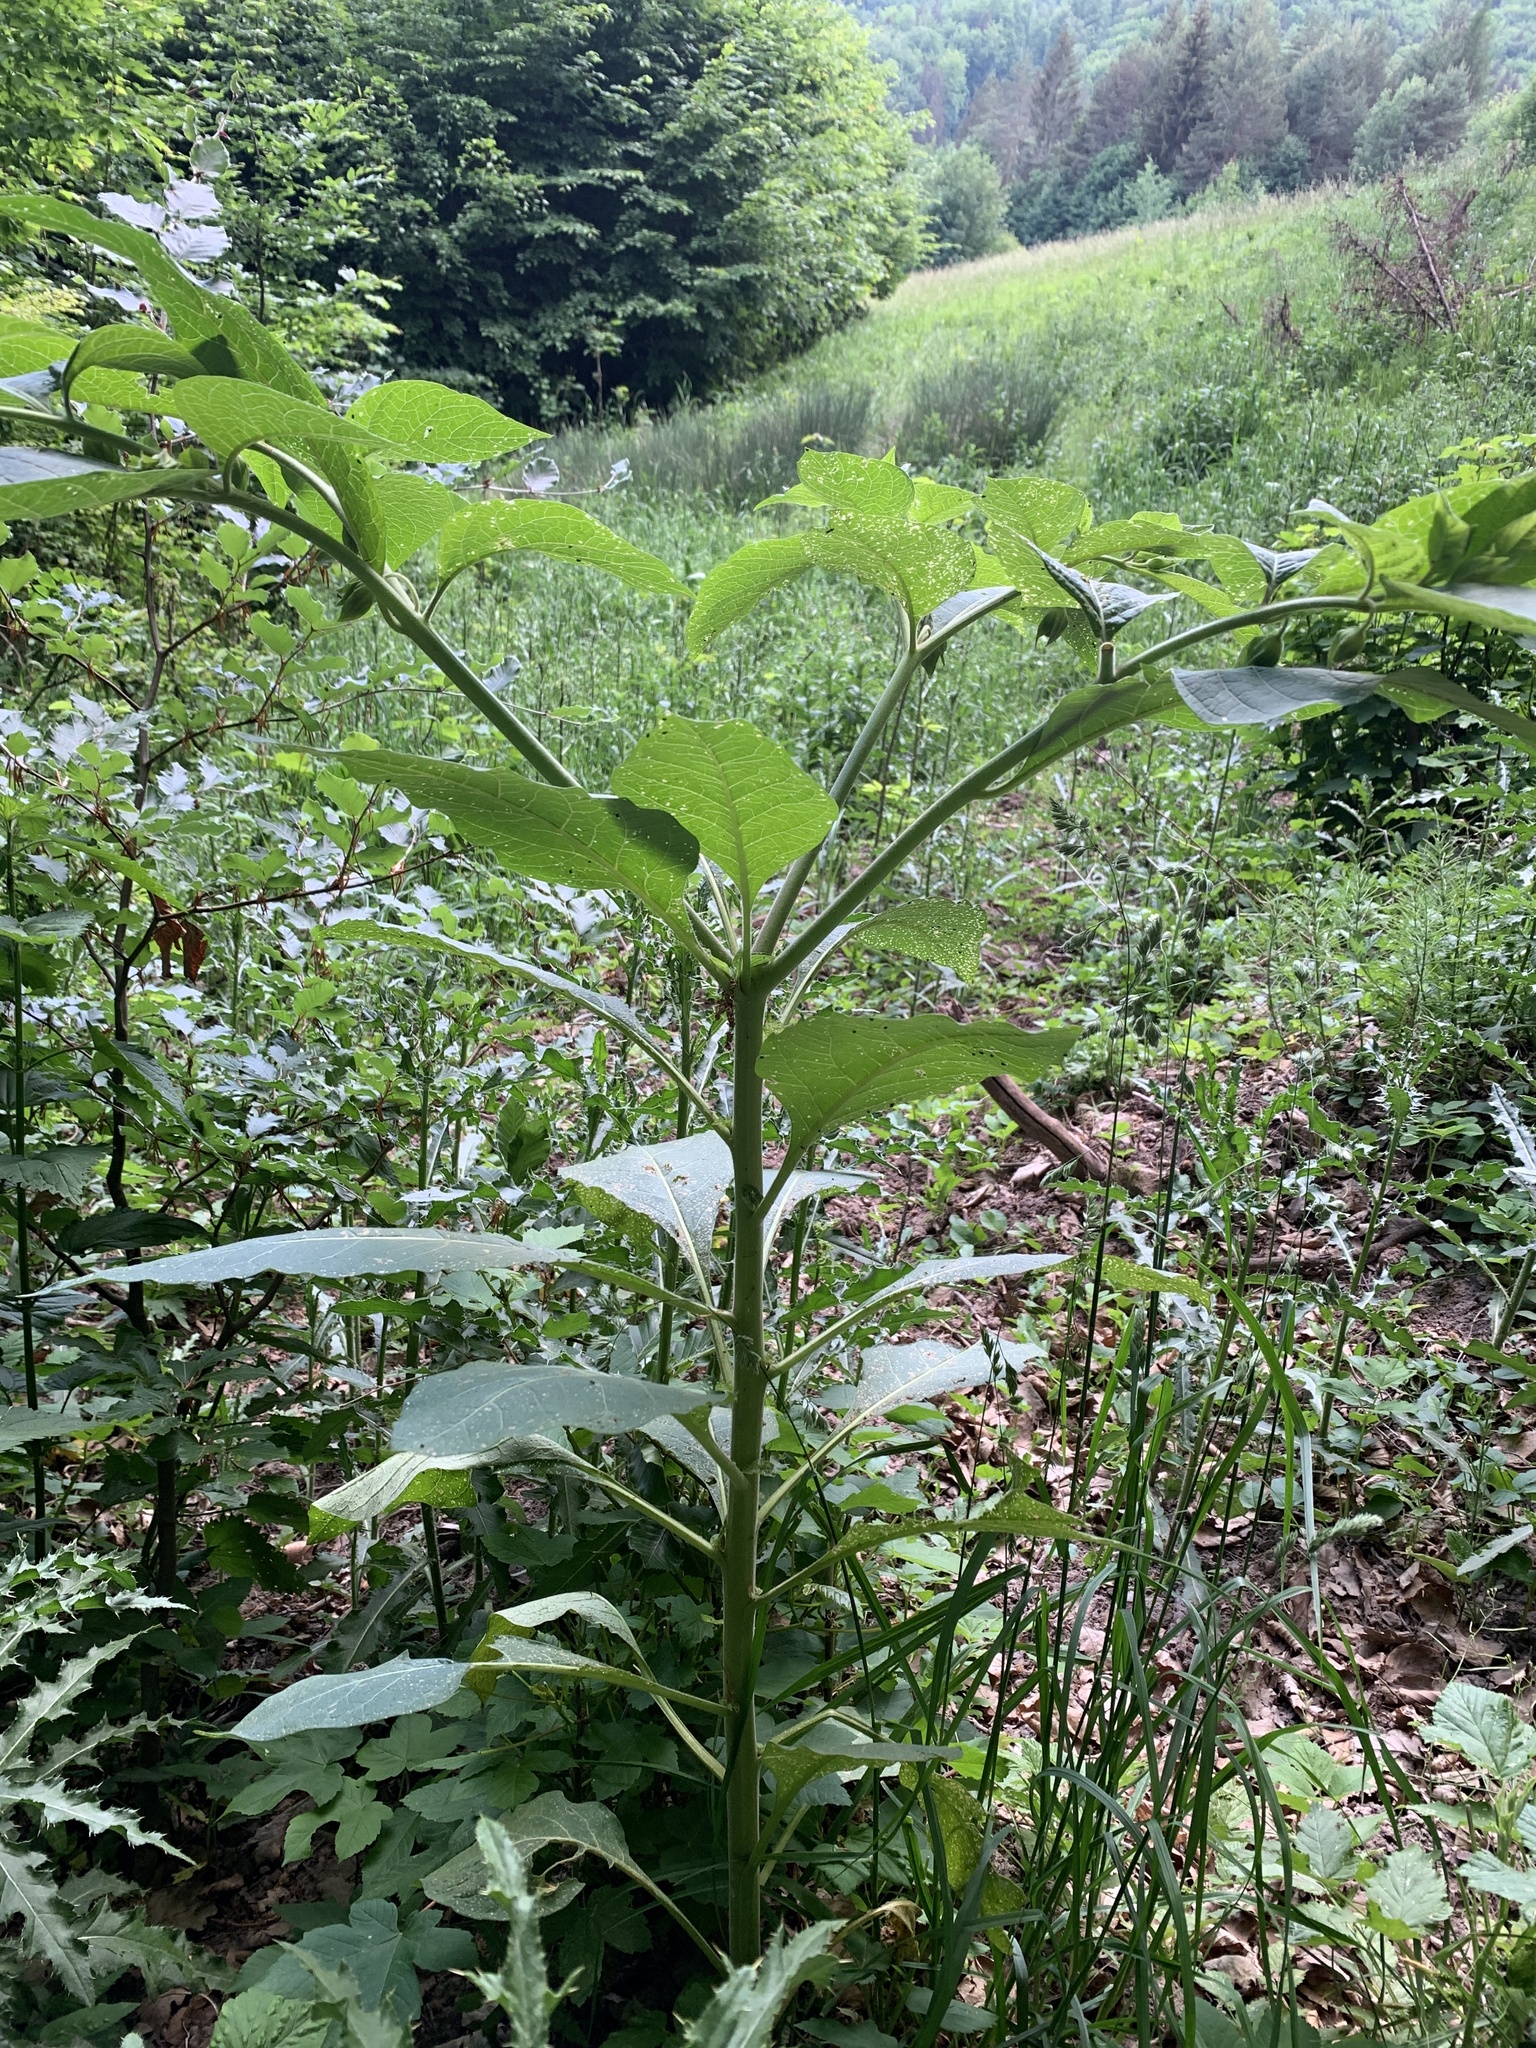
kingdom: Plantae
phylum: Tracheophyta
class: Magnoliopsida
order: Solanales
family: Solanaceae
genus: Atropa
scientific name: Atropa belladonna
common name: Deadly nightshade
